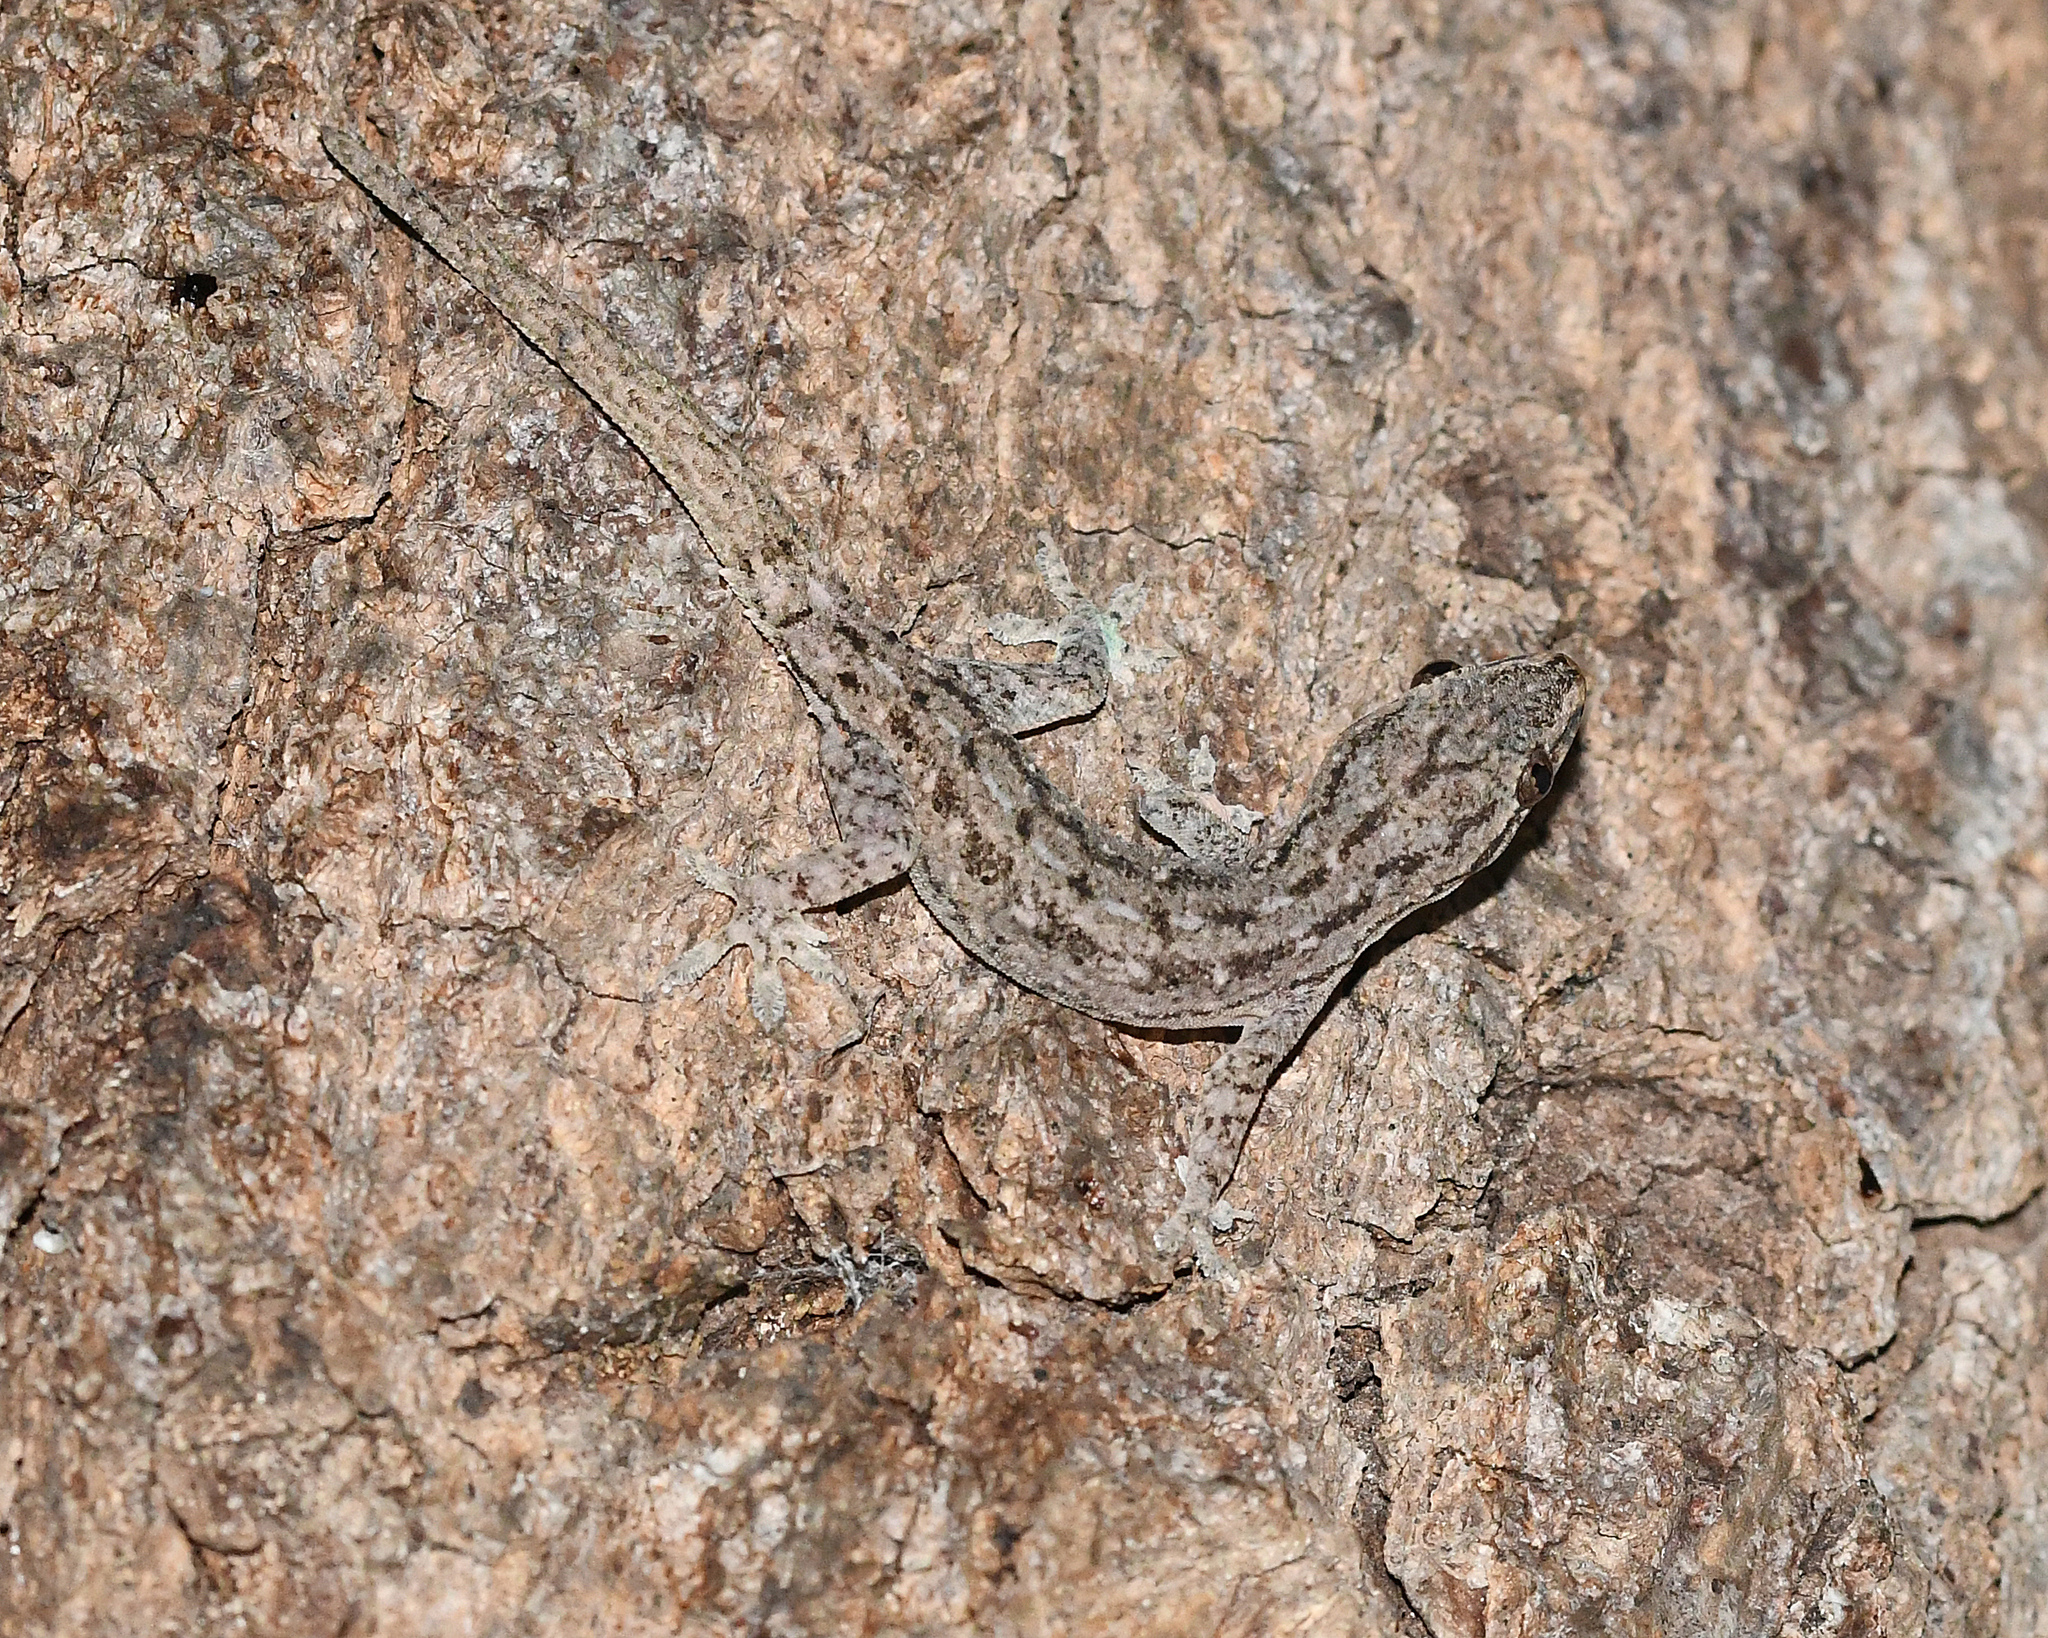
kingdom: Animalia
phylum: Chordata
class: Squamata
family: Gekkonidae
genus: Hemidactylus
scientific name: Hemidactylus frenatus
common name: Common house gecko
